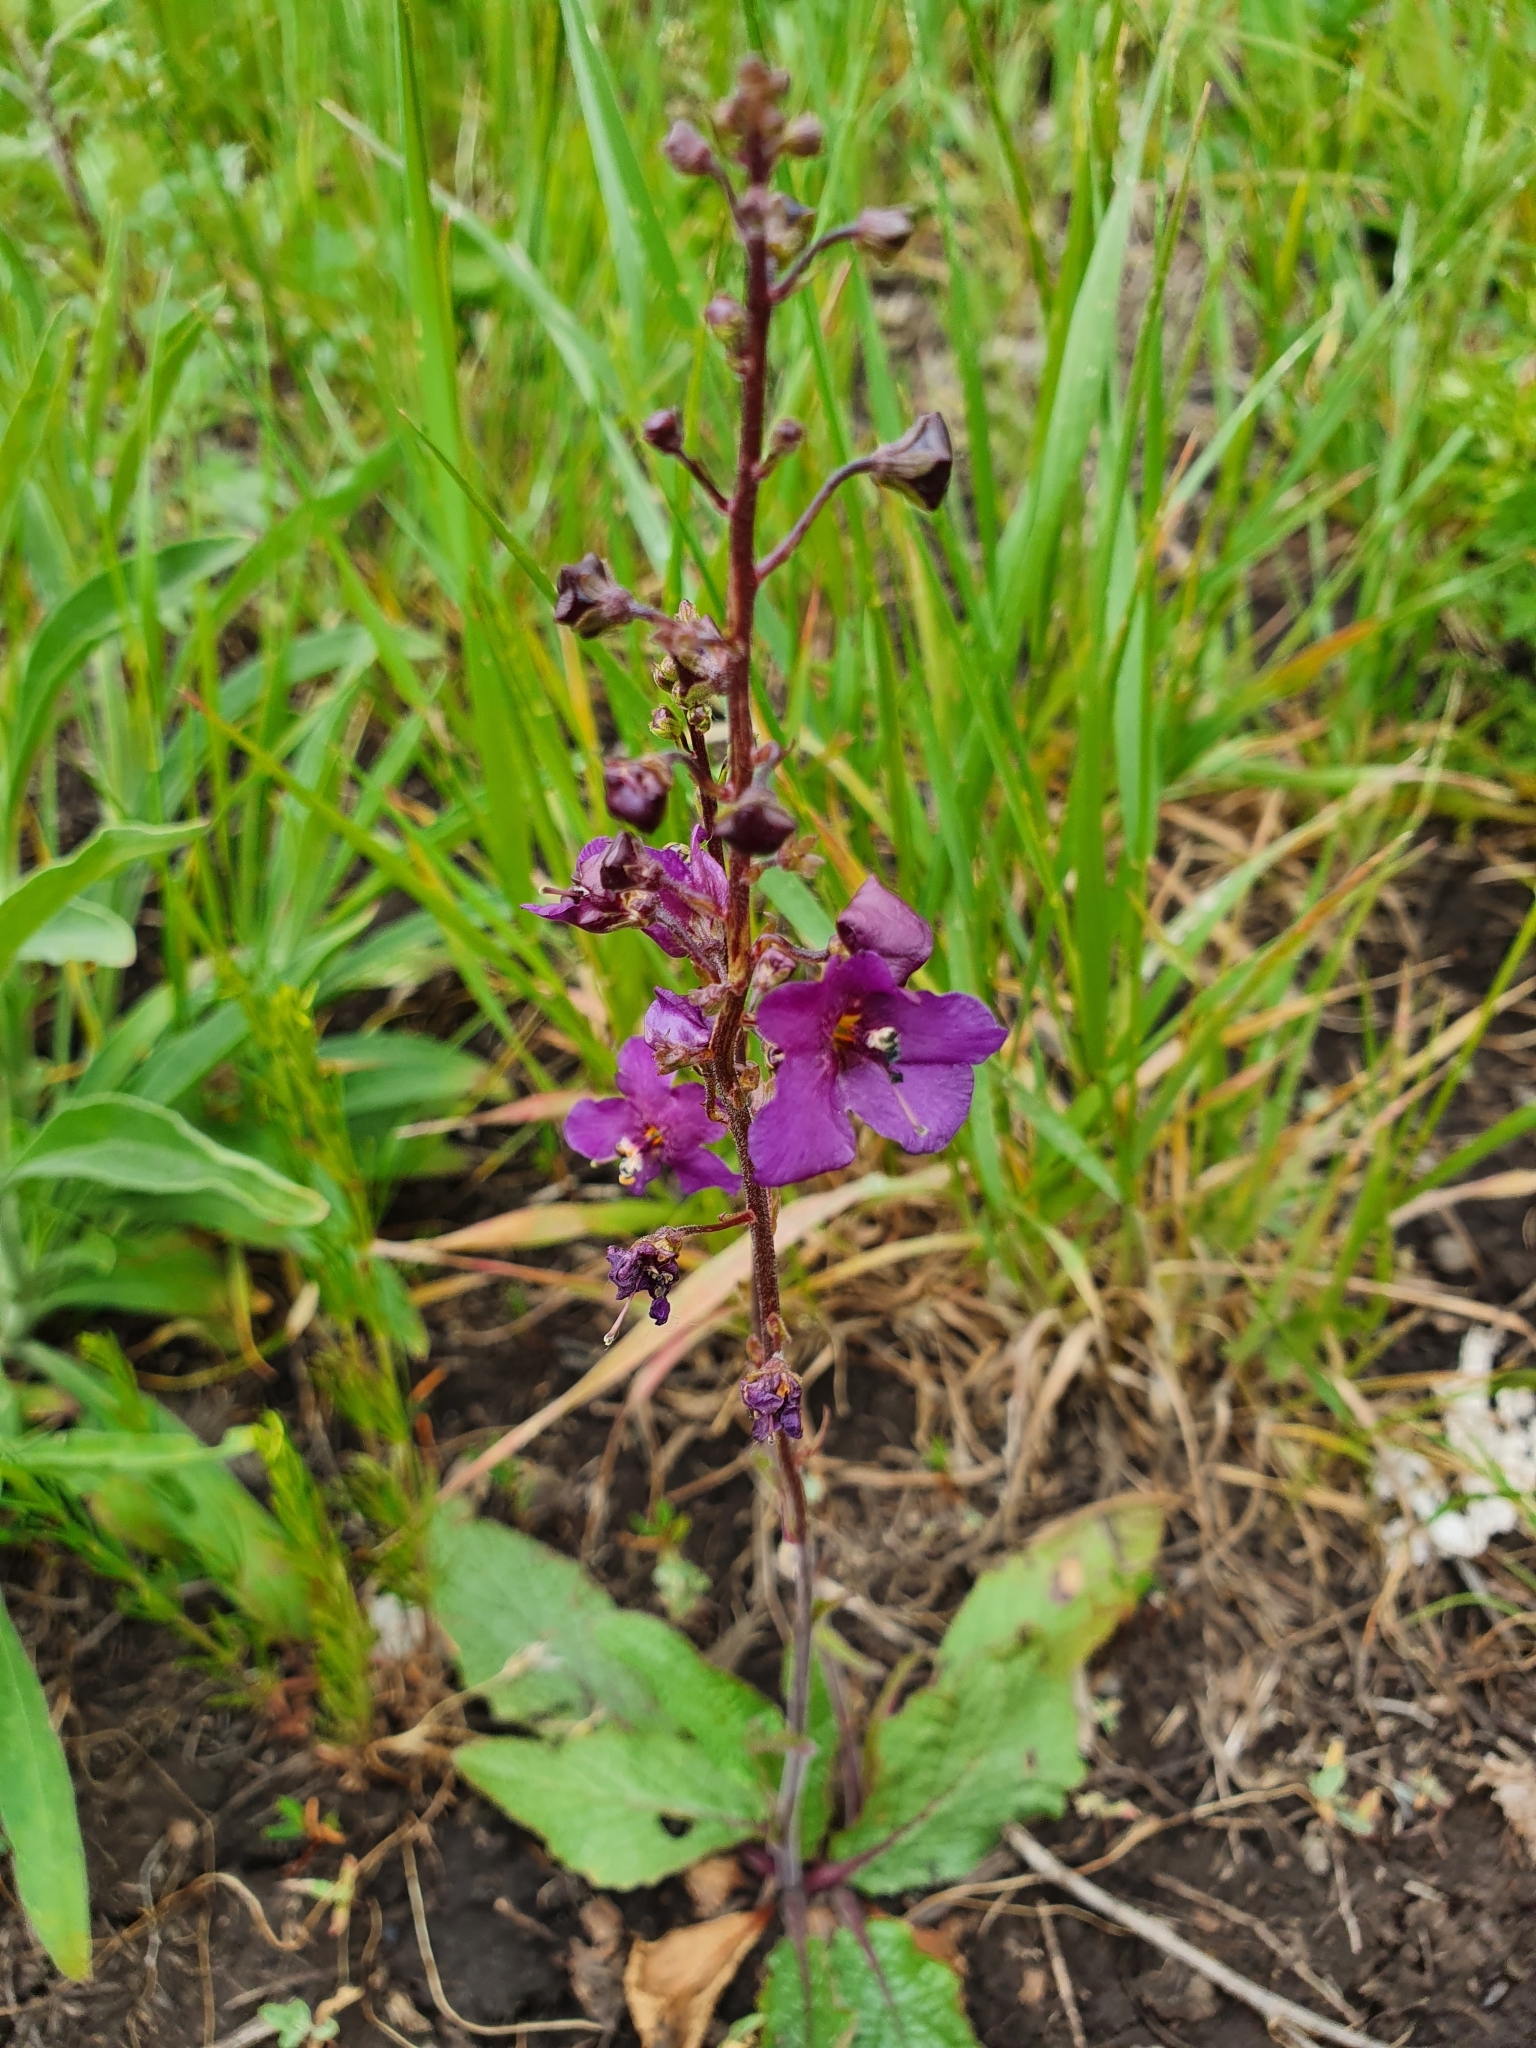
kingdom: Plantae
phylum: Tracheophyta
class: Magnoliopsida
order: Lamiales
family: Scrophulariaceae
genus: Verbascum
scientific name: Verbascum phoeniceum
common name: Purple mullein
